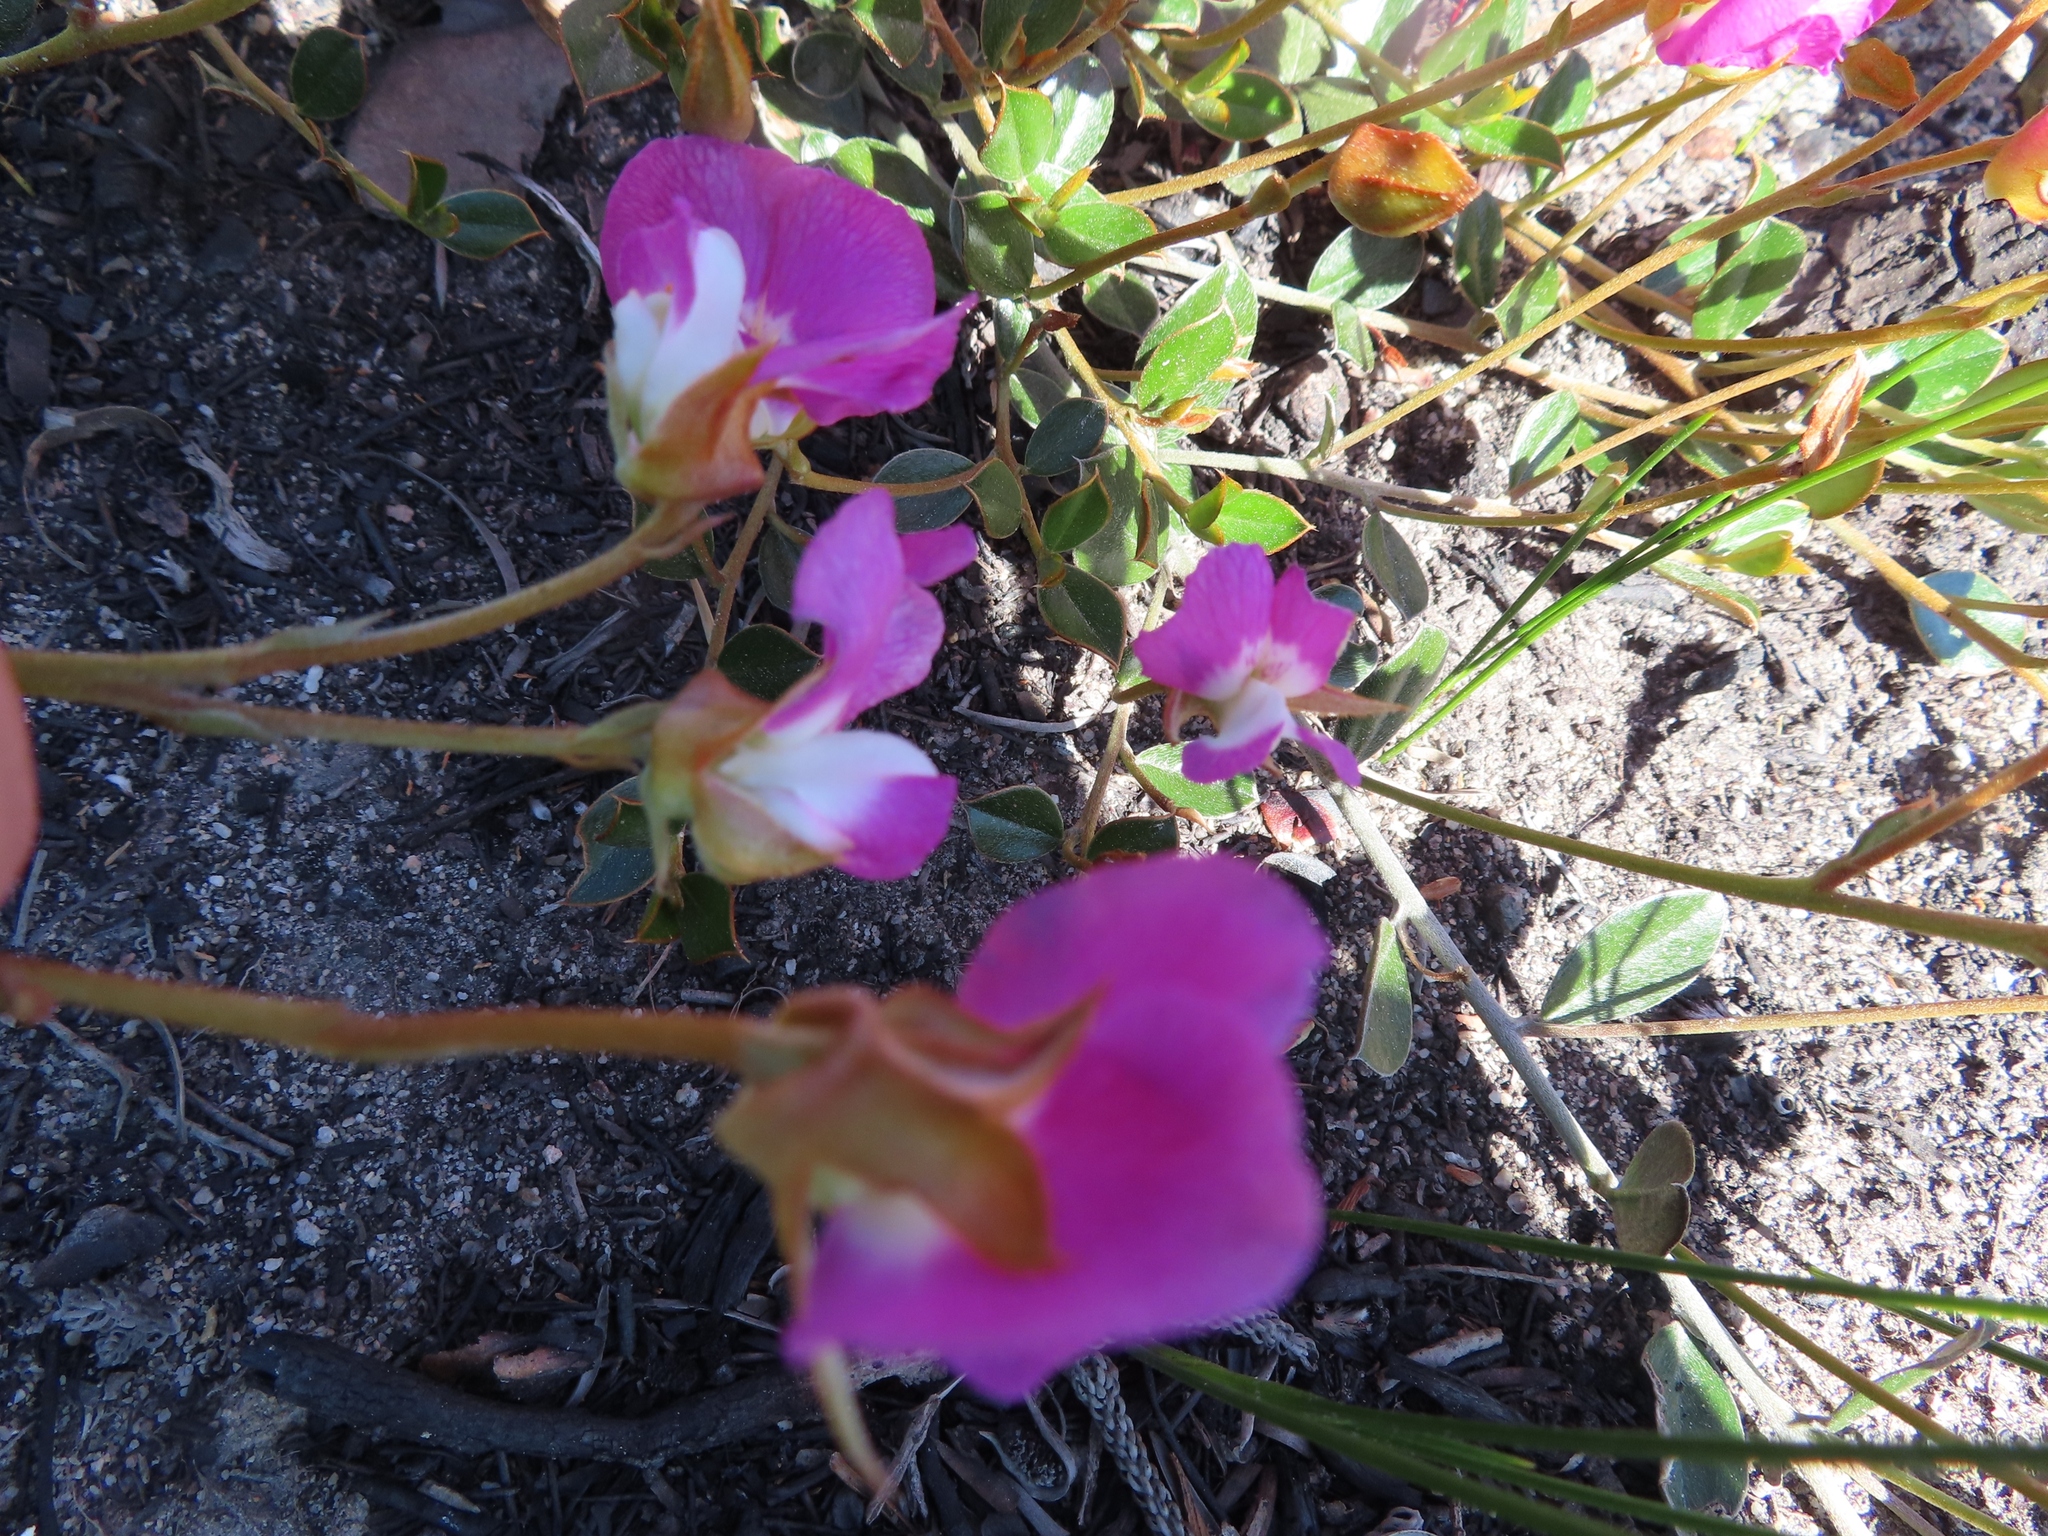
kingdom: Plantae
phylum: Tracheophyta
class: Magnoliopsida
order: Fabales
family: Fabaceae
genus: Podalyria
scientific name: Podalyria biflora
